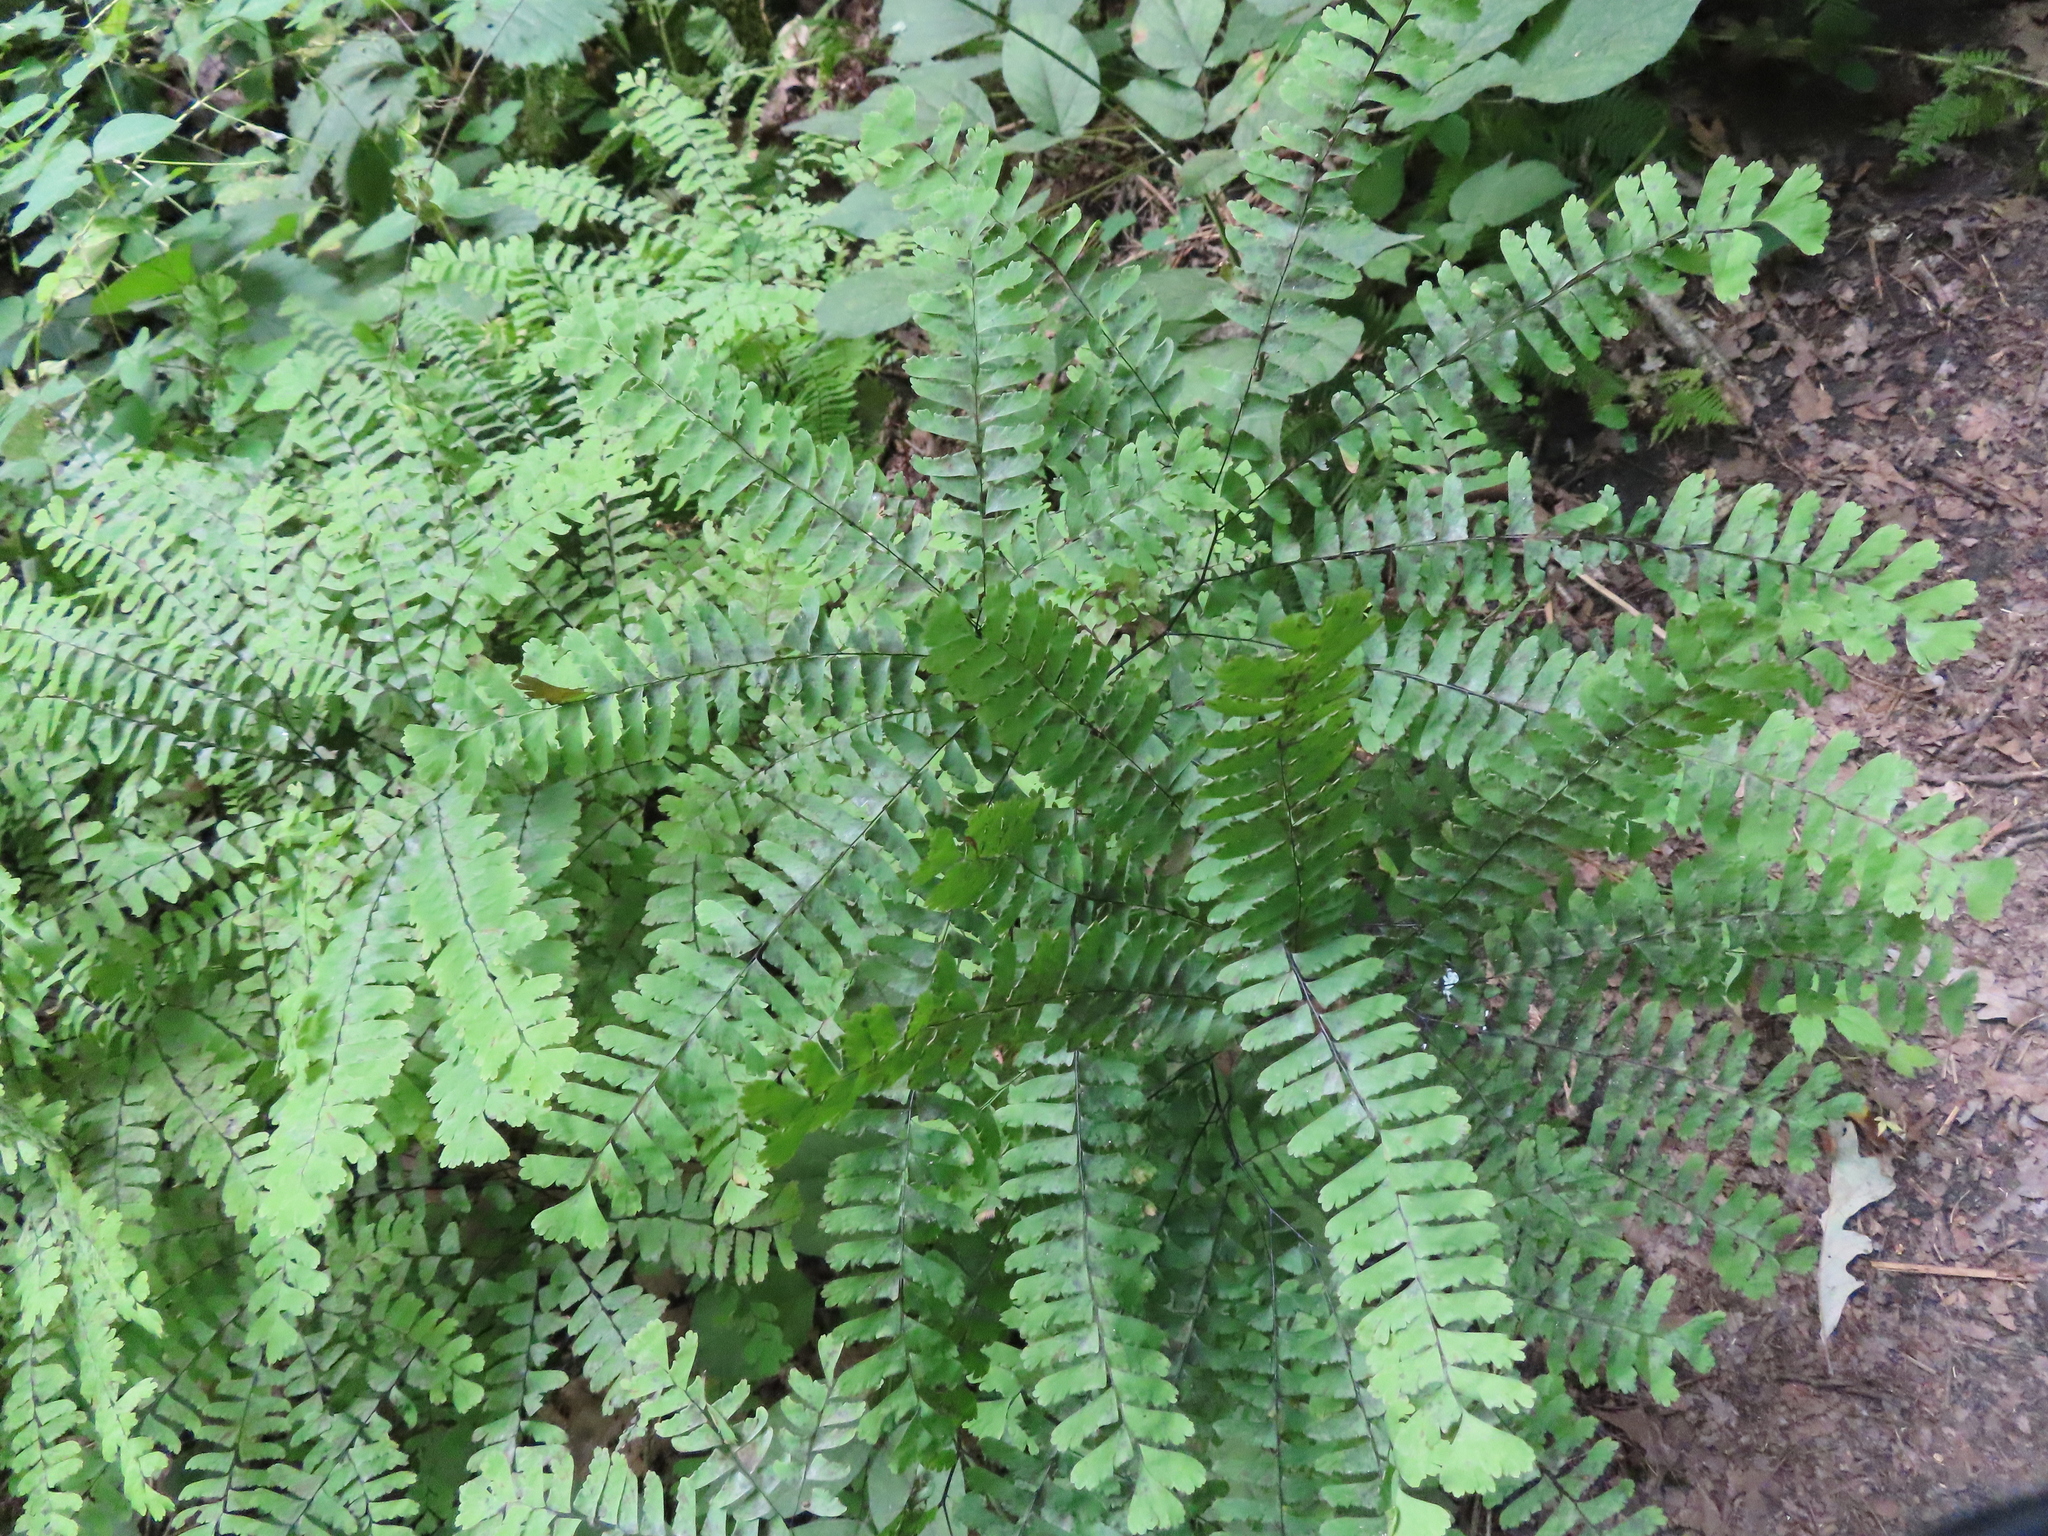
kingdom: Plantae
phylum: Tracheophyta
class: Polypodiopsida
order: Polypodiales
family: Pteridaceae
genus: Adiantum
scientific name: Adiantum pedatum
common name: Five-finger fern
